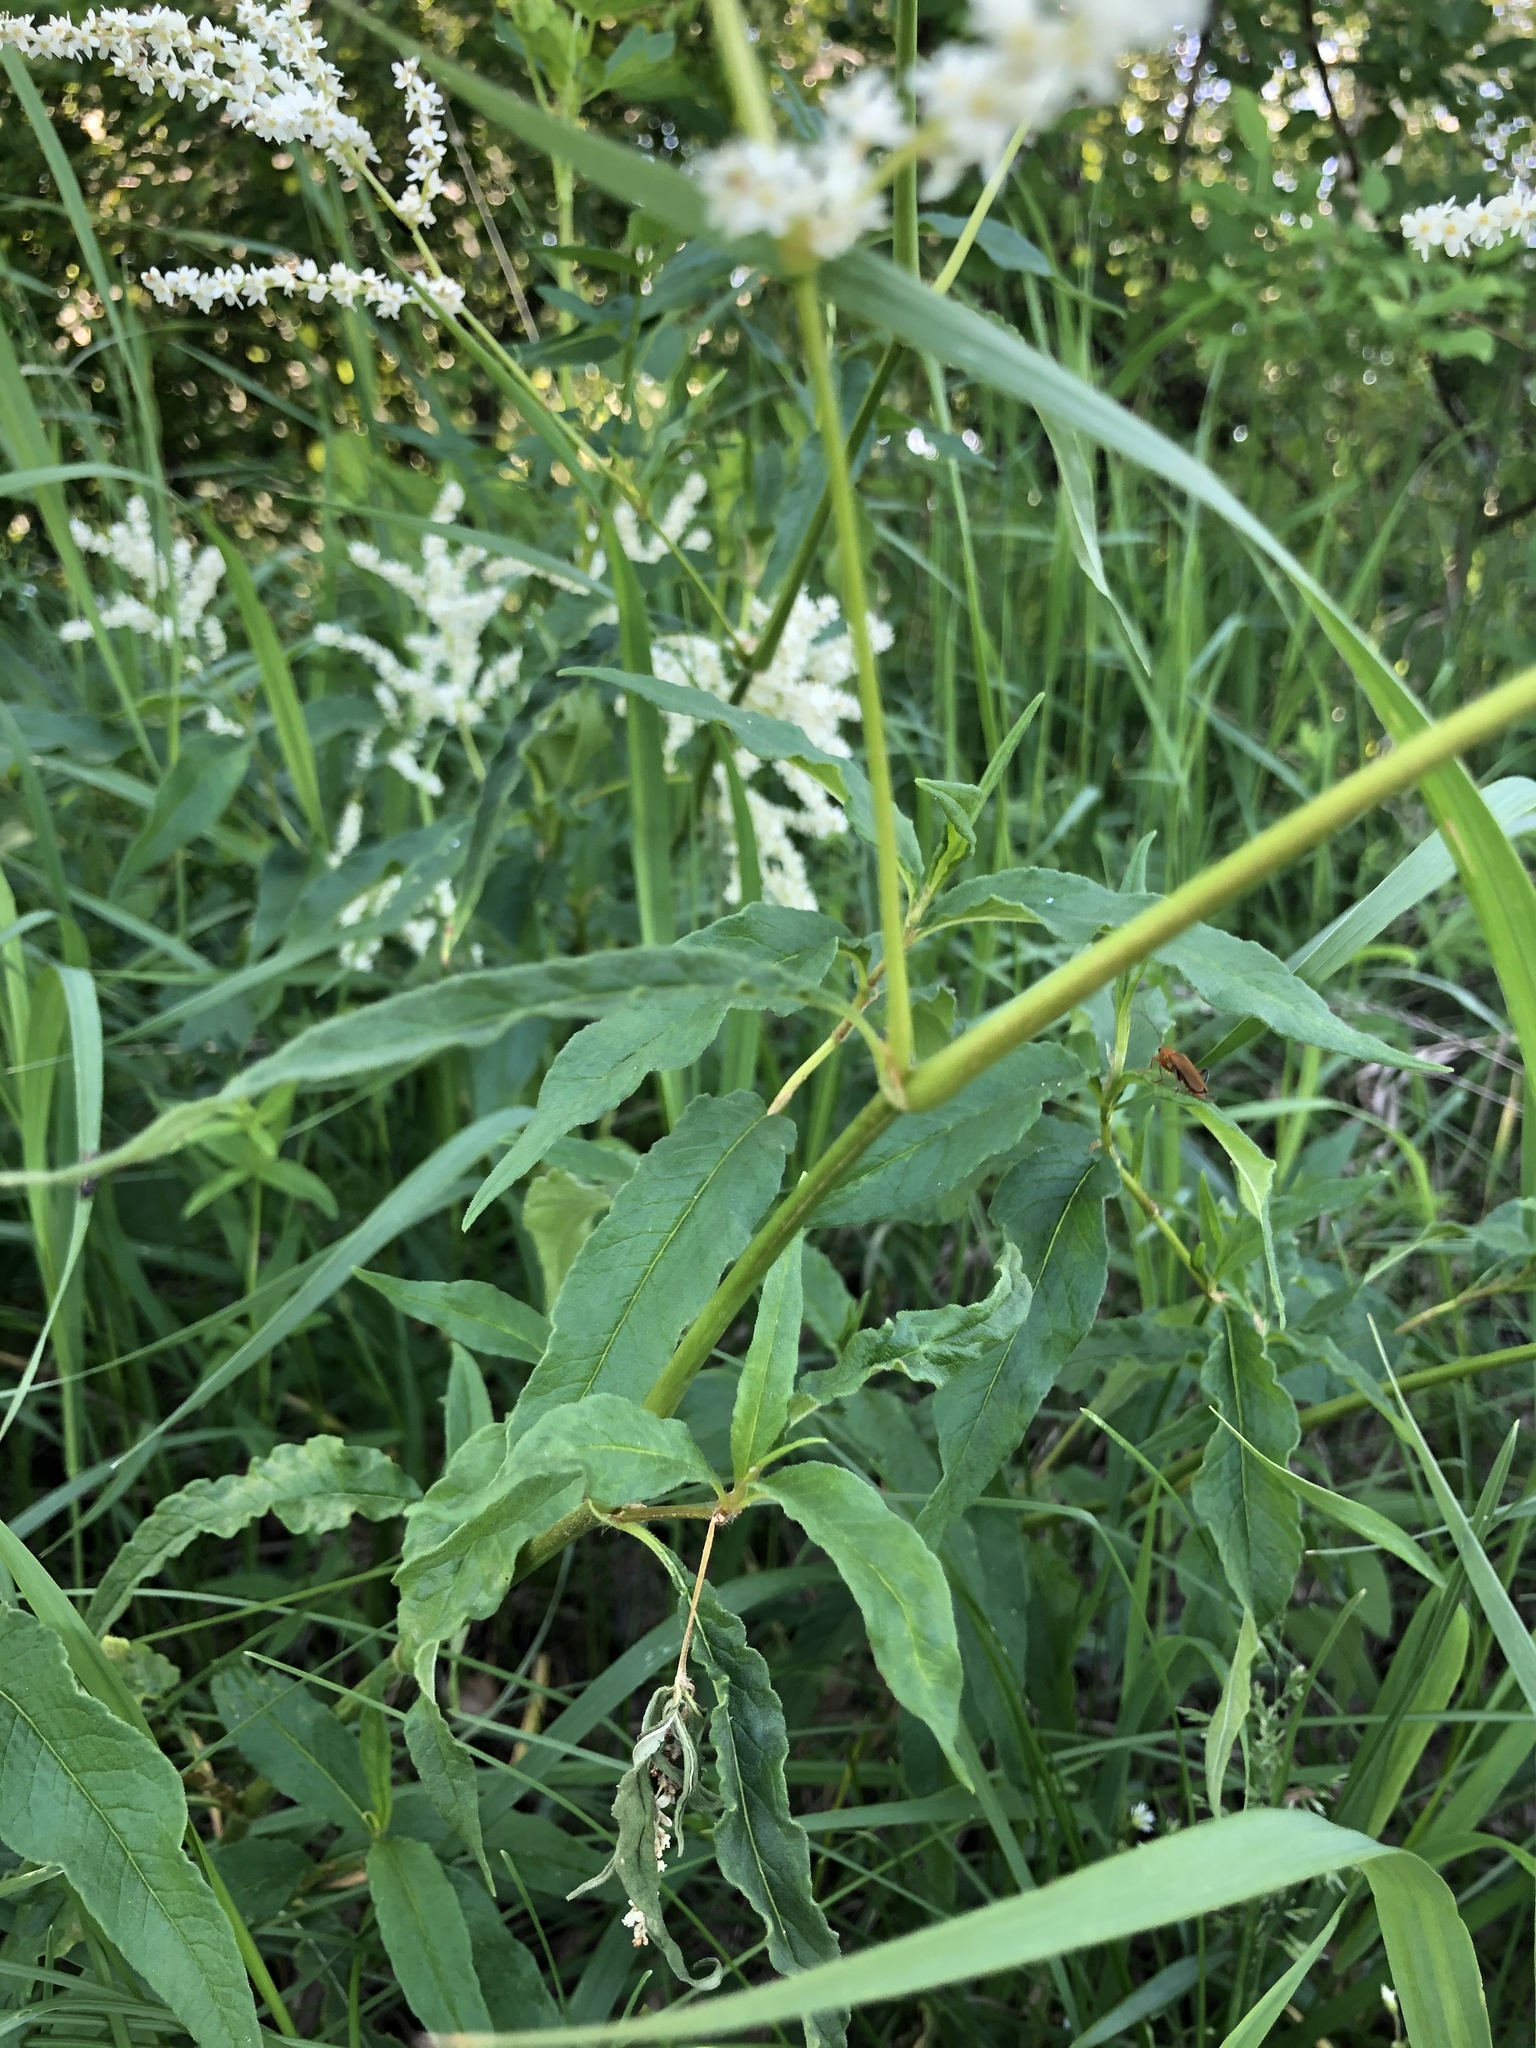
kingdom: Plantae
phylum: Tracheophyta
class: Magnoliopsida
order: Caryophyllales
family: Polygonaceae
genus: Koenigia
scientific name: Koenigia alpina
